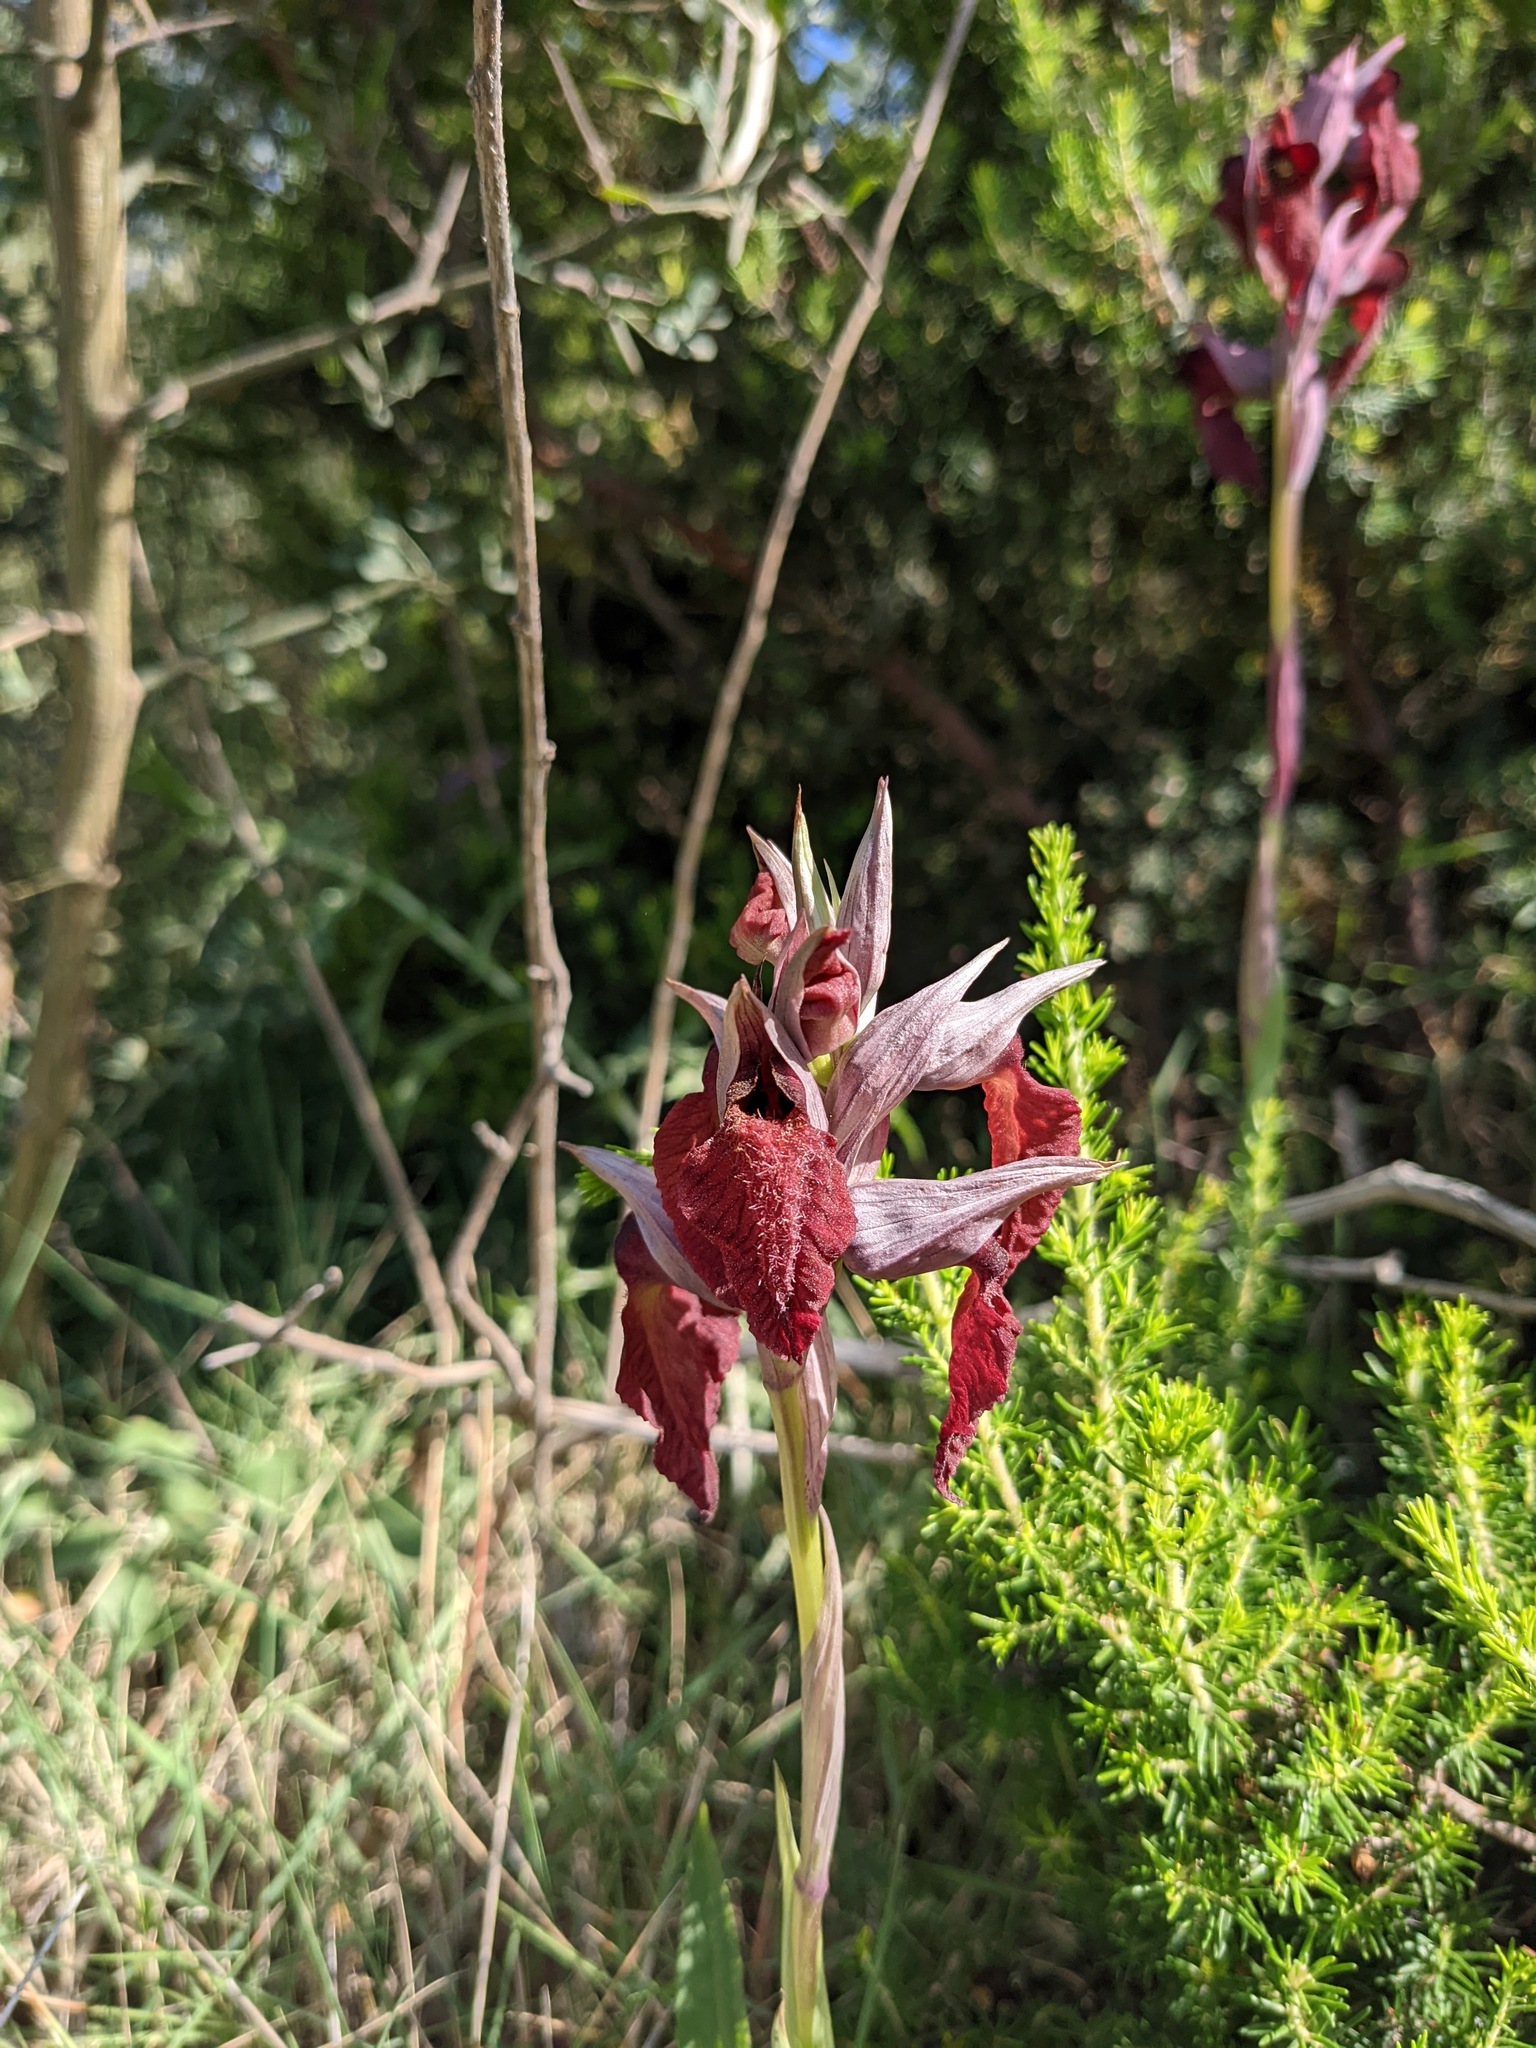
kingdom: Plantae
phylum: Tracheophyta
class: Liliopsida
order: Asparagales
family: Orchidaceae
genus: Serapias
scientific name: Serapias cordigera
